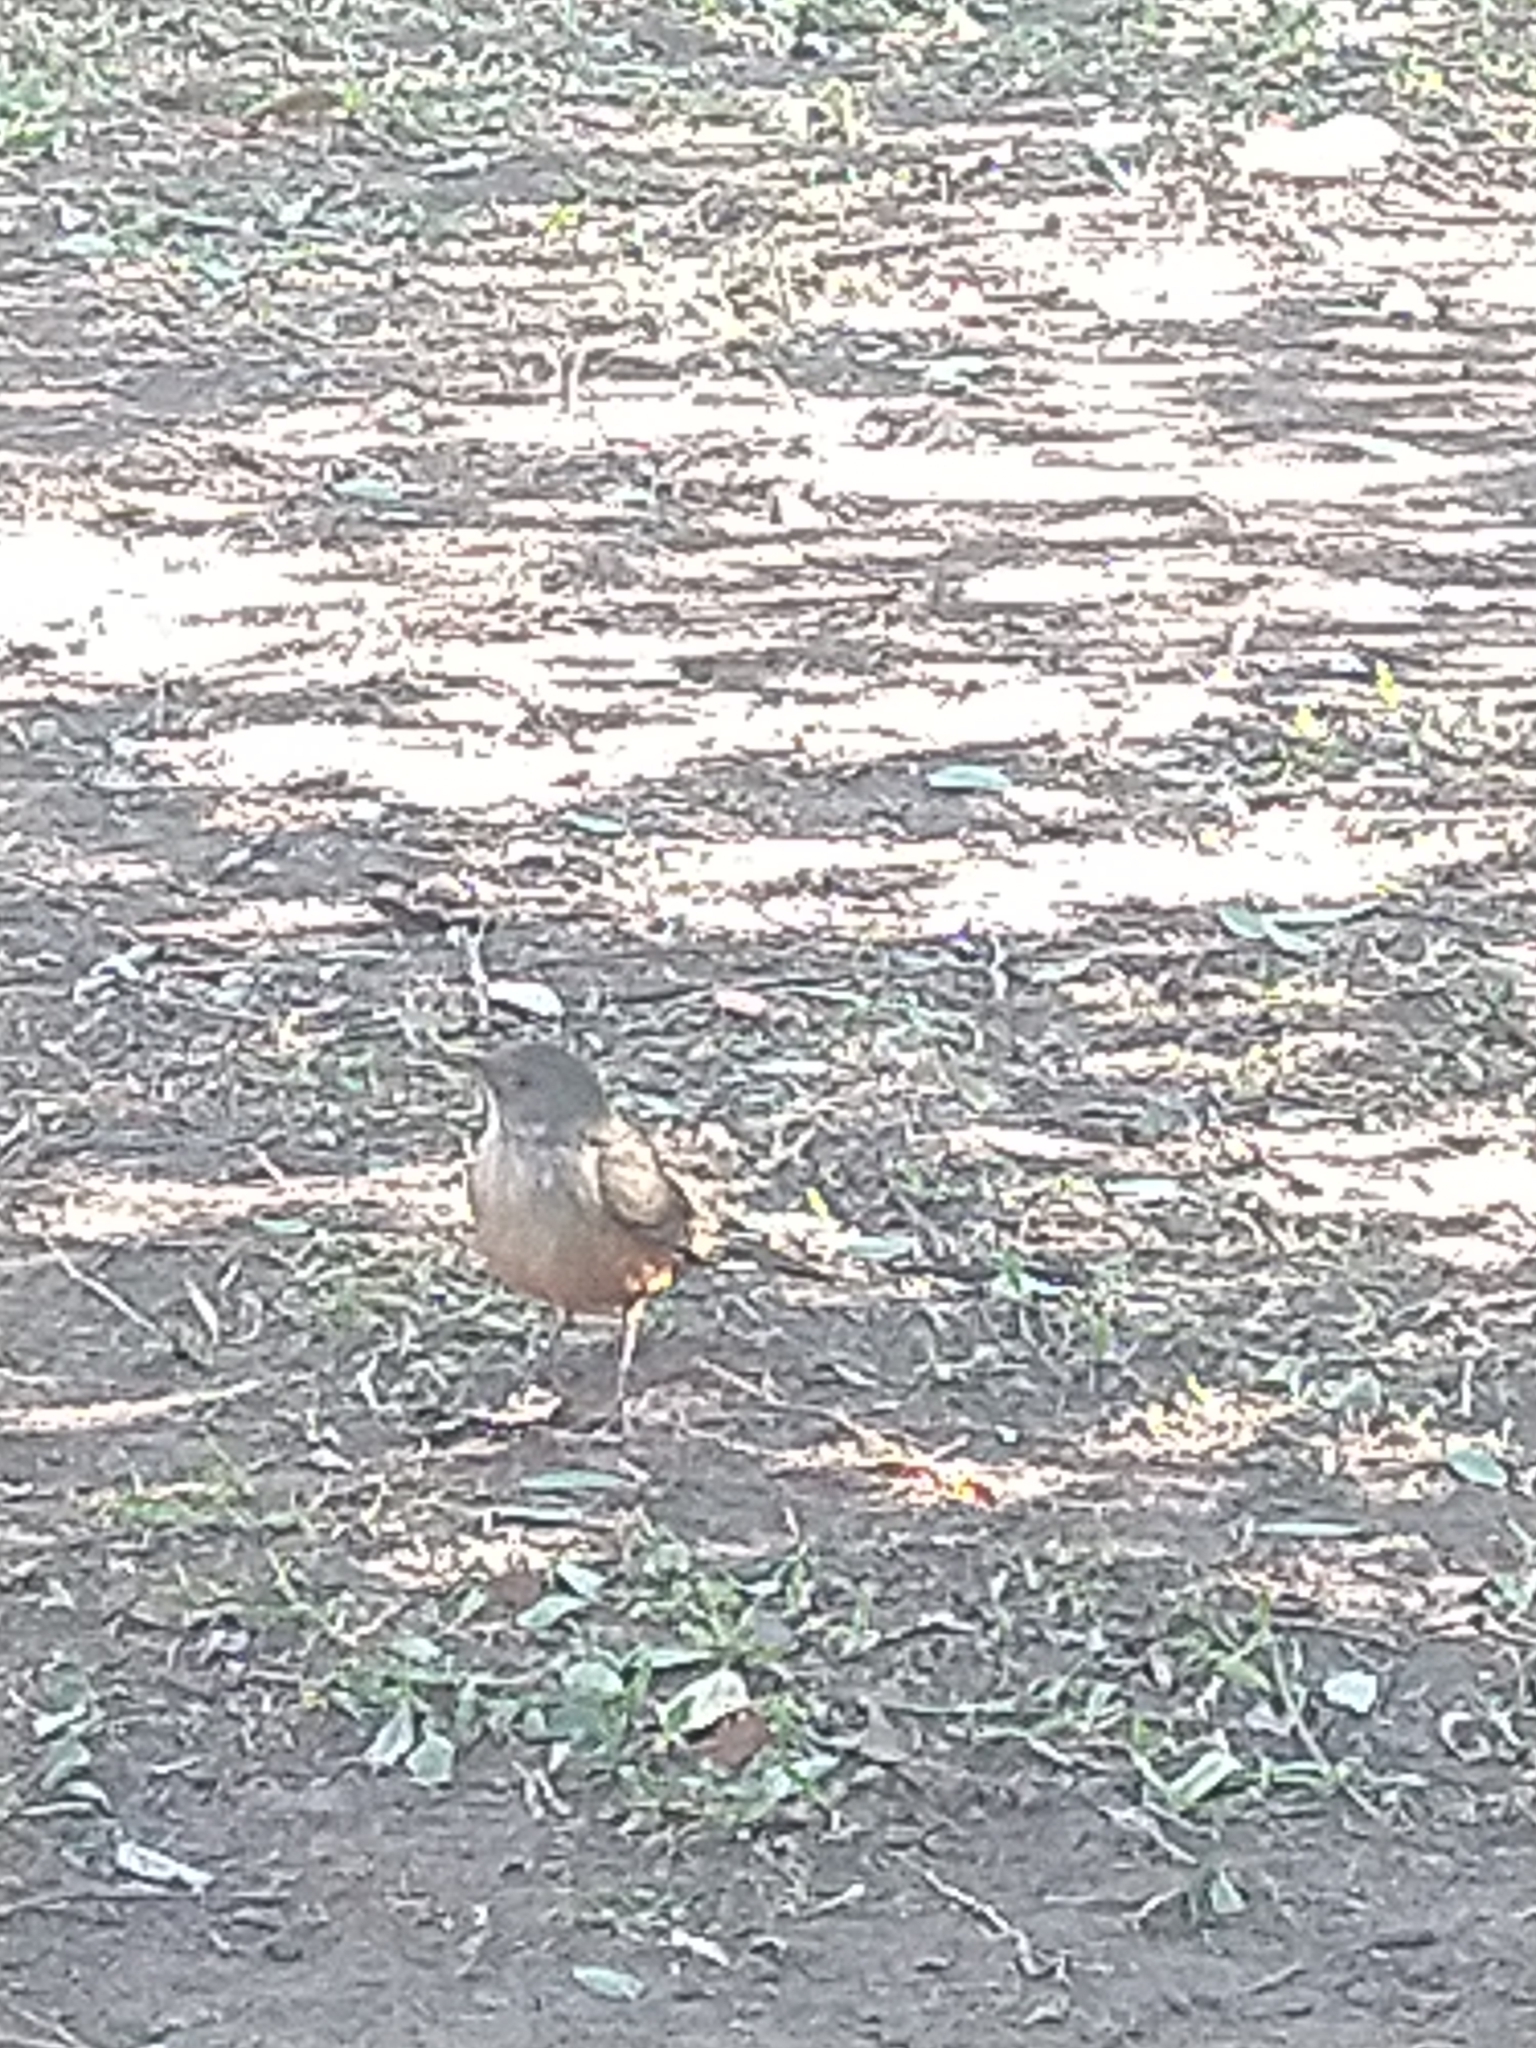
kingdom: Animalia
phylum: Chordata
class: Aves
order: Passeriformes
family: Turdidae
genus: Turdus
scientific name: Turdus rufiventris
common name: Rufous-bellied thrush
